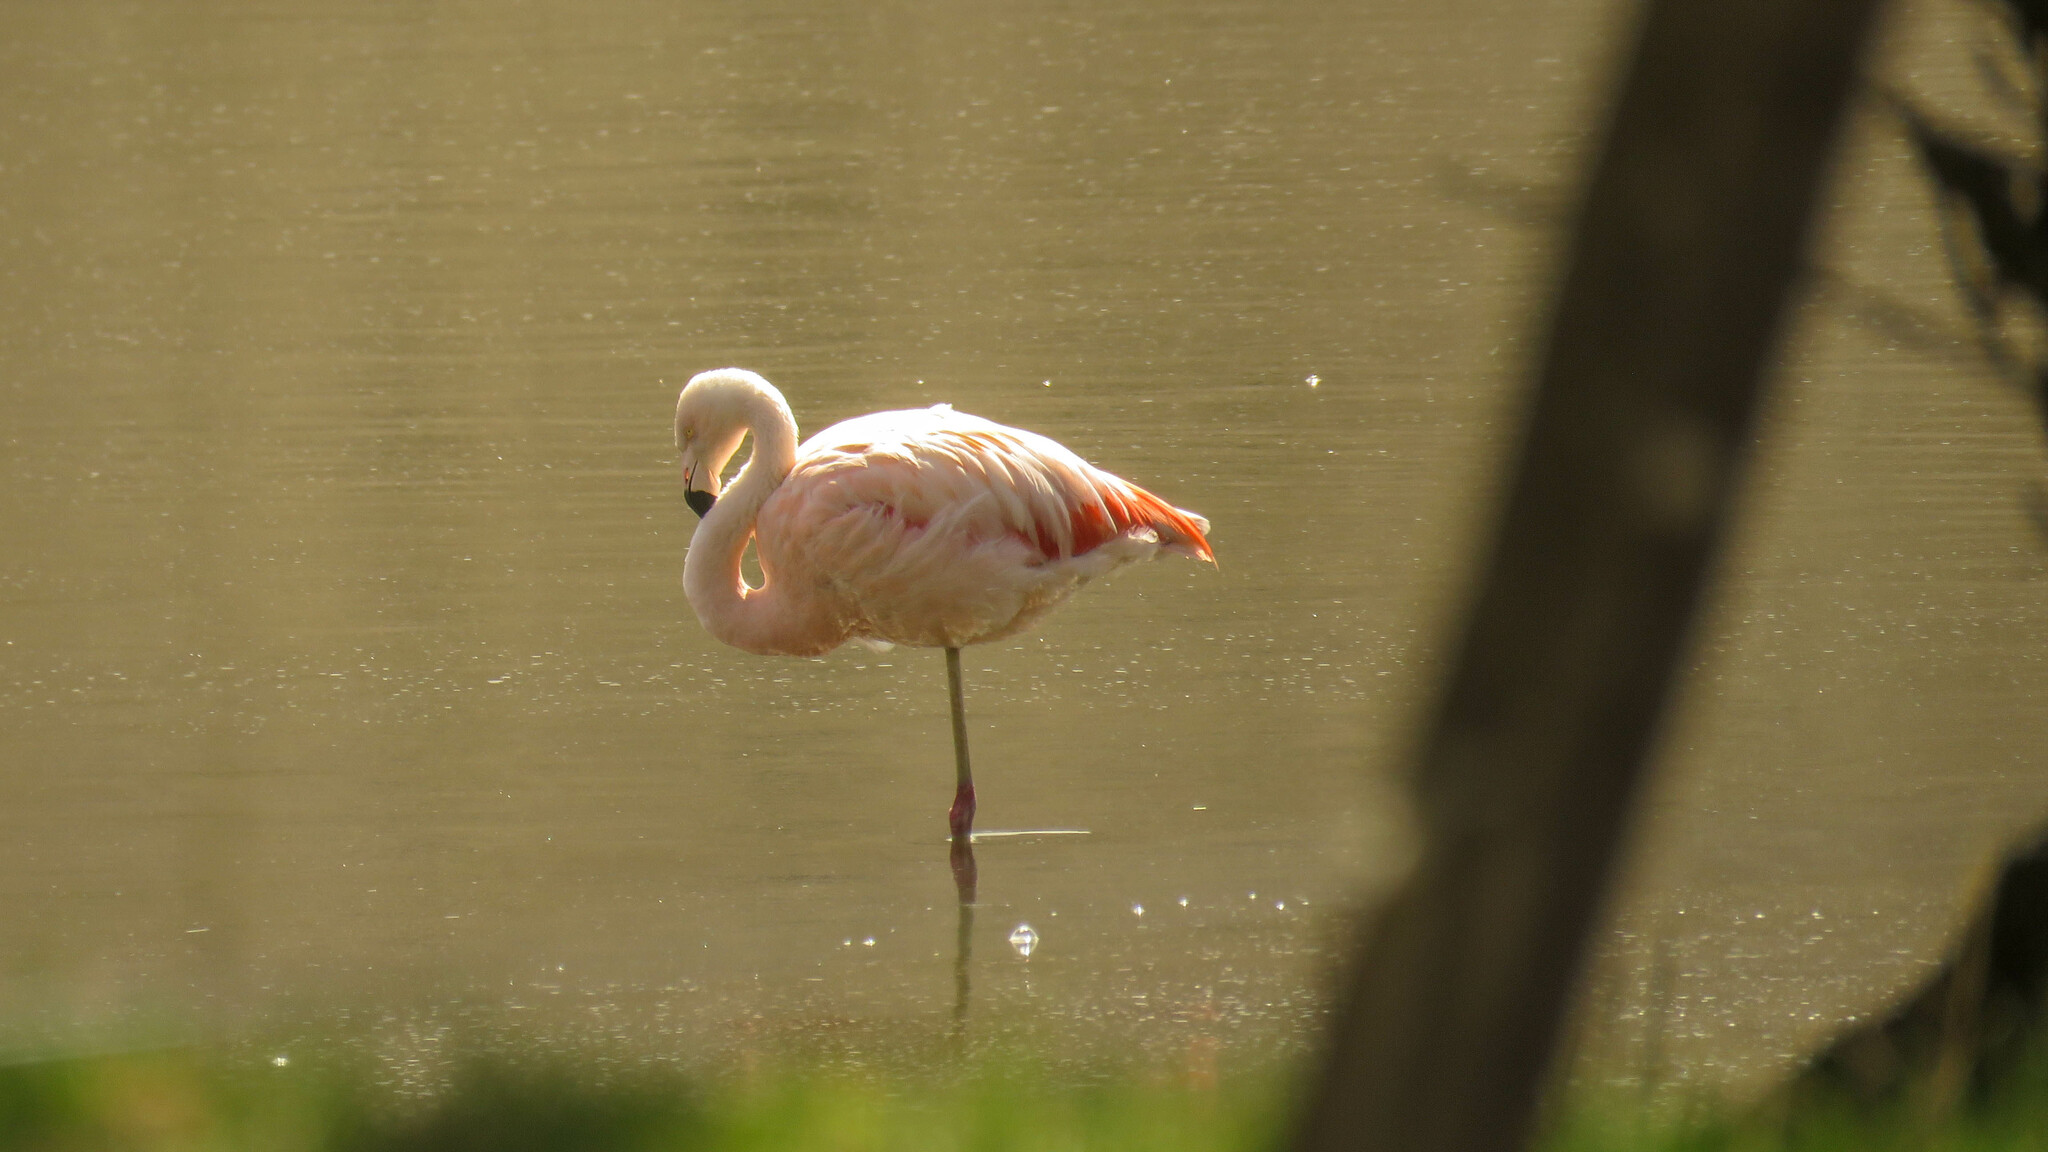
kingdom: Animalia
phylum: Chordata
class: Aves
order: Phoenicopteriformes
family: Phoenicopteridae
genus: Phoenicopterus
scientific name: Phoenicopterus chilensis
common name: Chilean flamingo
